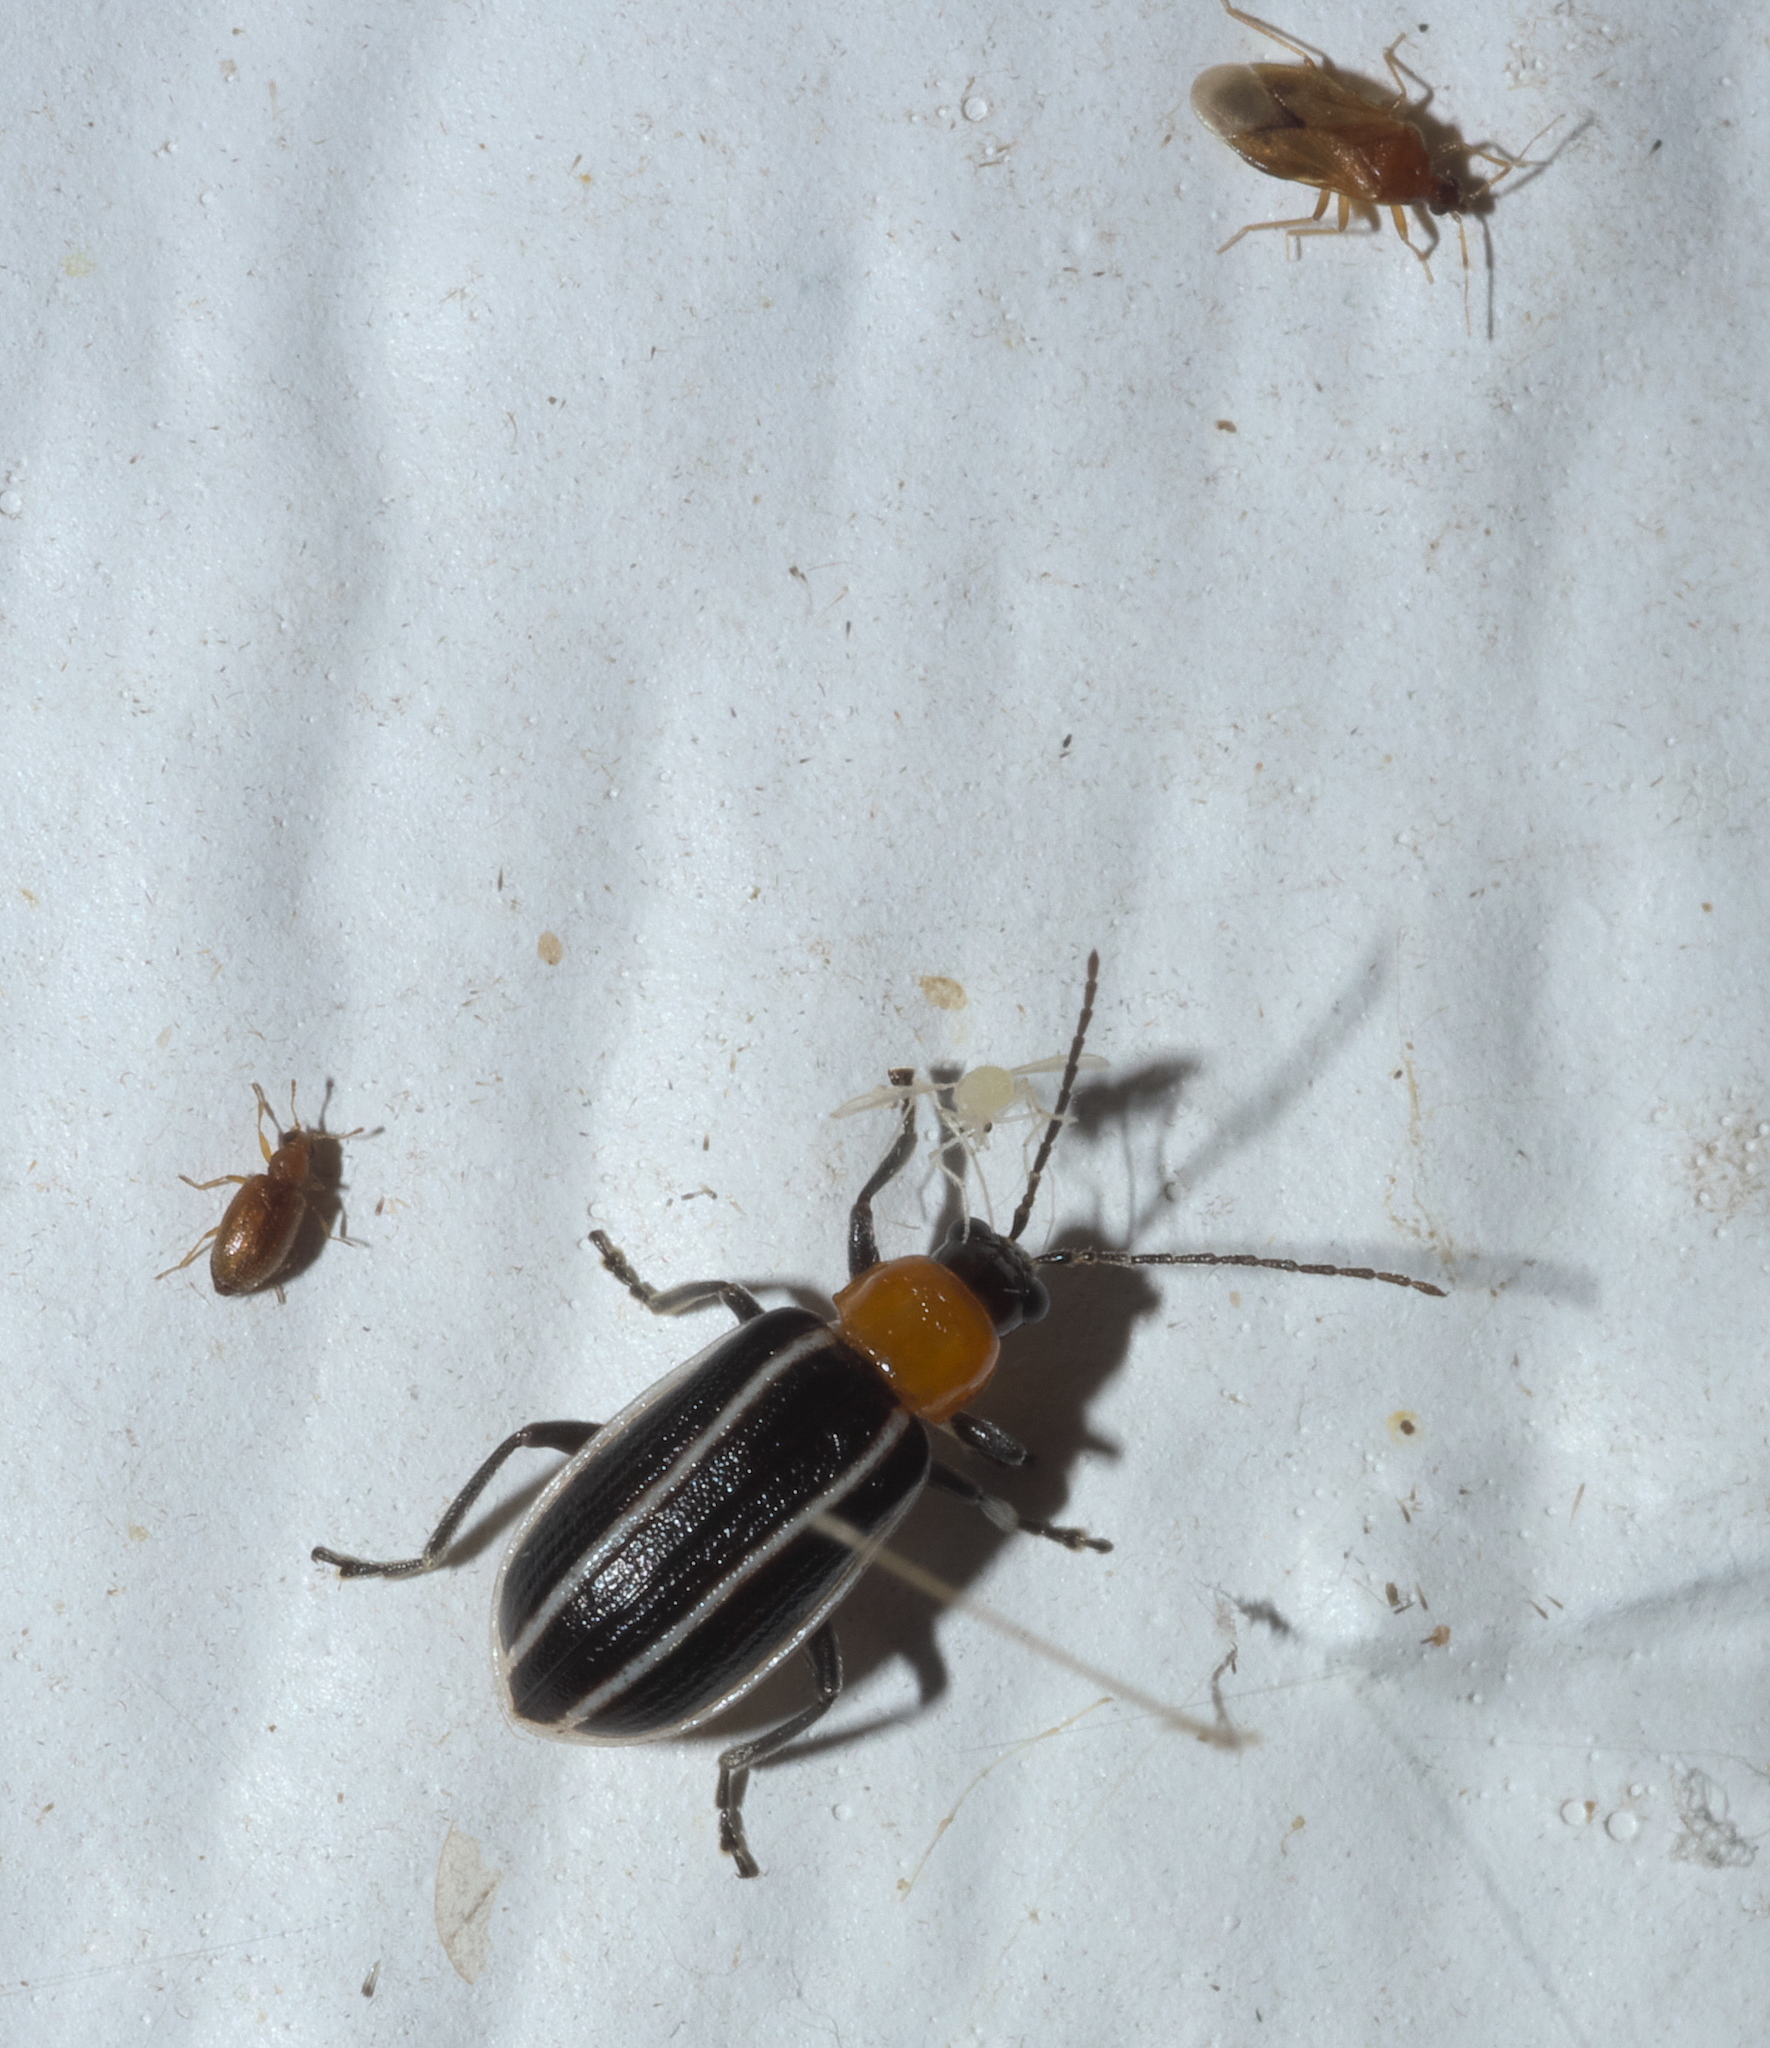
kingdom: Animalia
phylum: Arthropoda
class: Insecta
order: Coleoptera
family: Chrysomelidae
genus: Acalymma
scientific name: Acalymma vinctum
